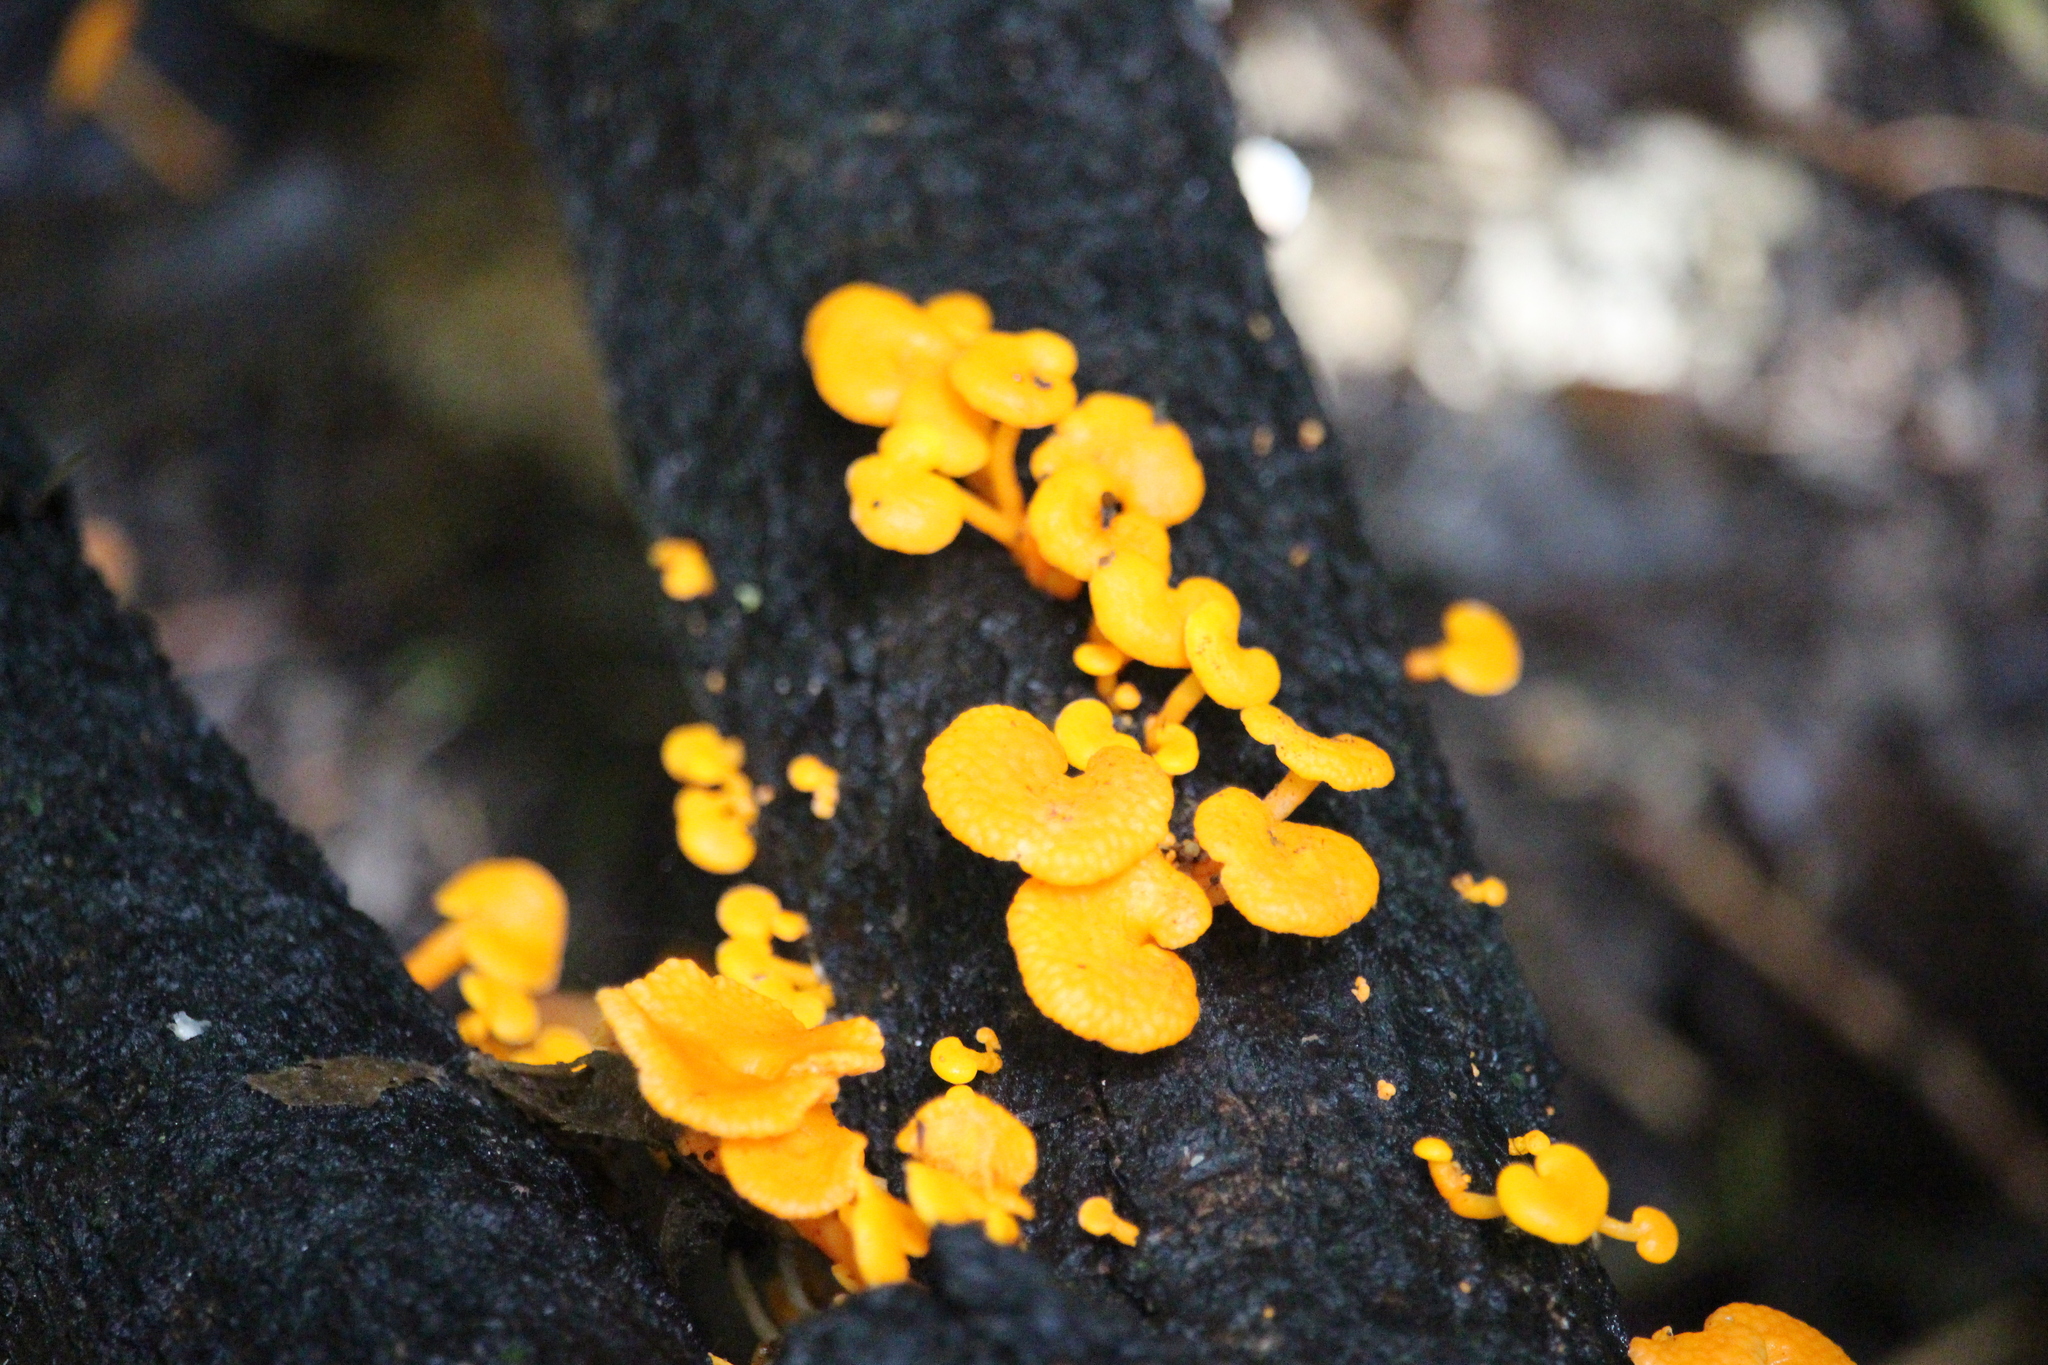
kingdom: Fungi
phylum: Basidiomycota
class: Agaricomycetes
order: Agaricales
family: Mycenaceae
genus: Favolaschia
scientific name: Favolaschia claudopus
